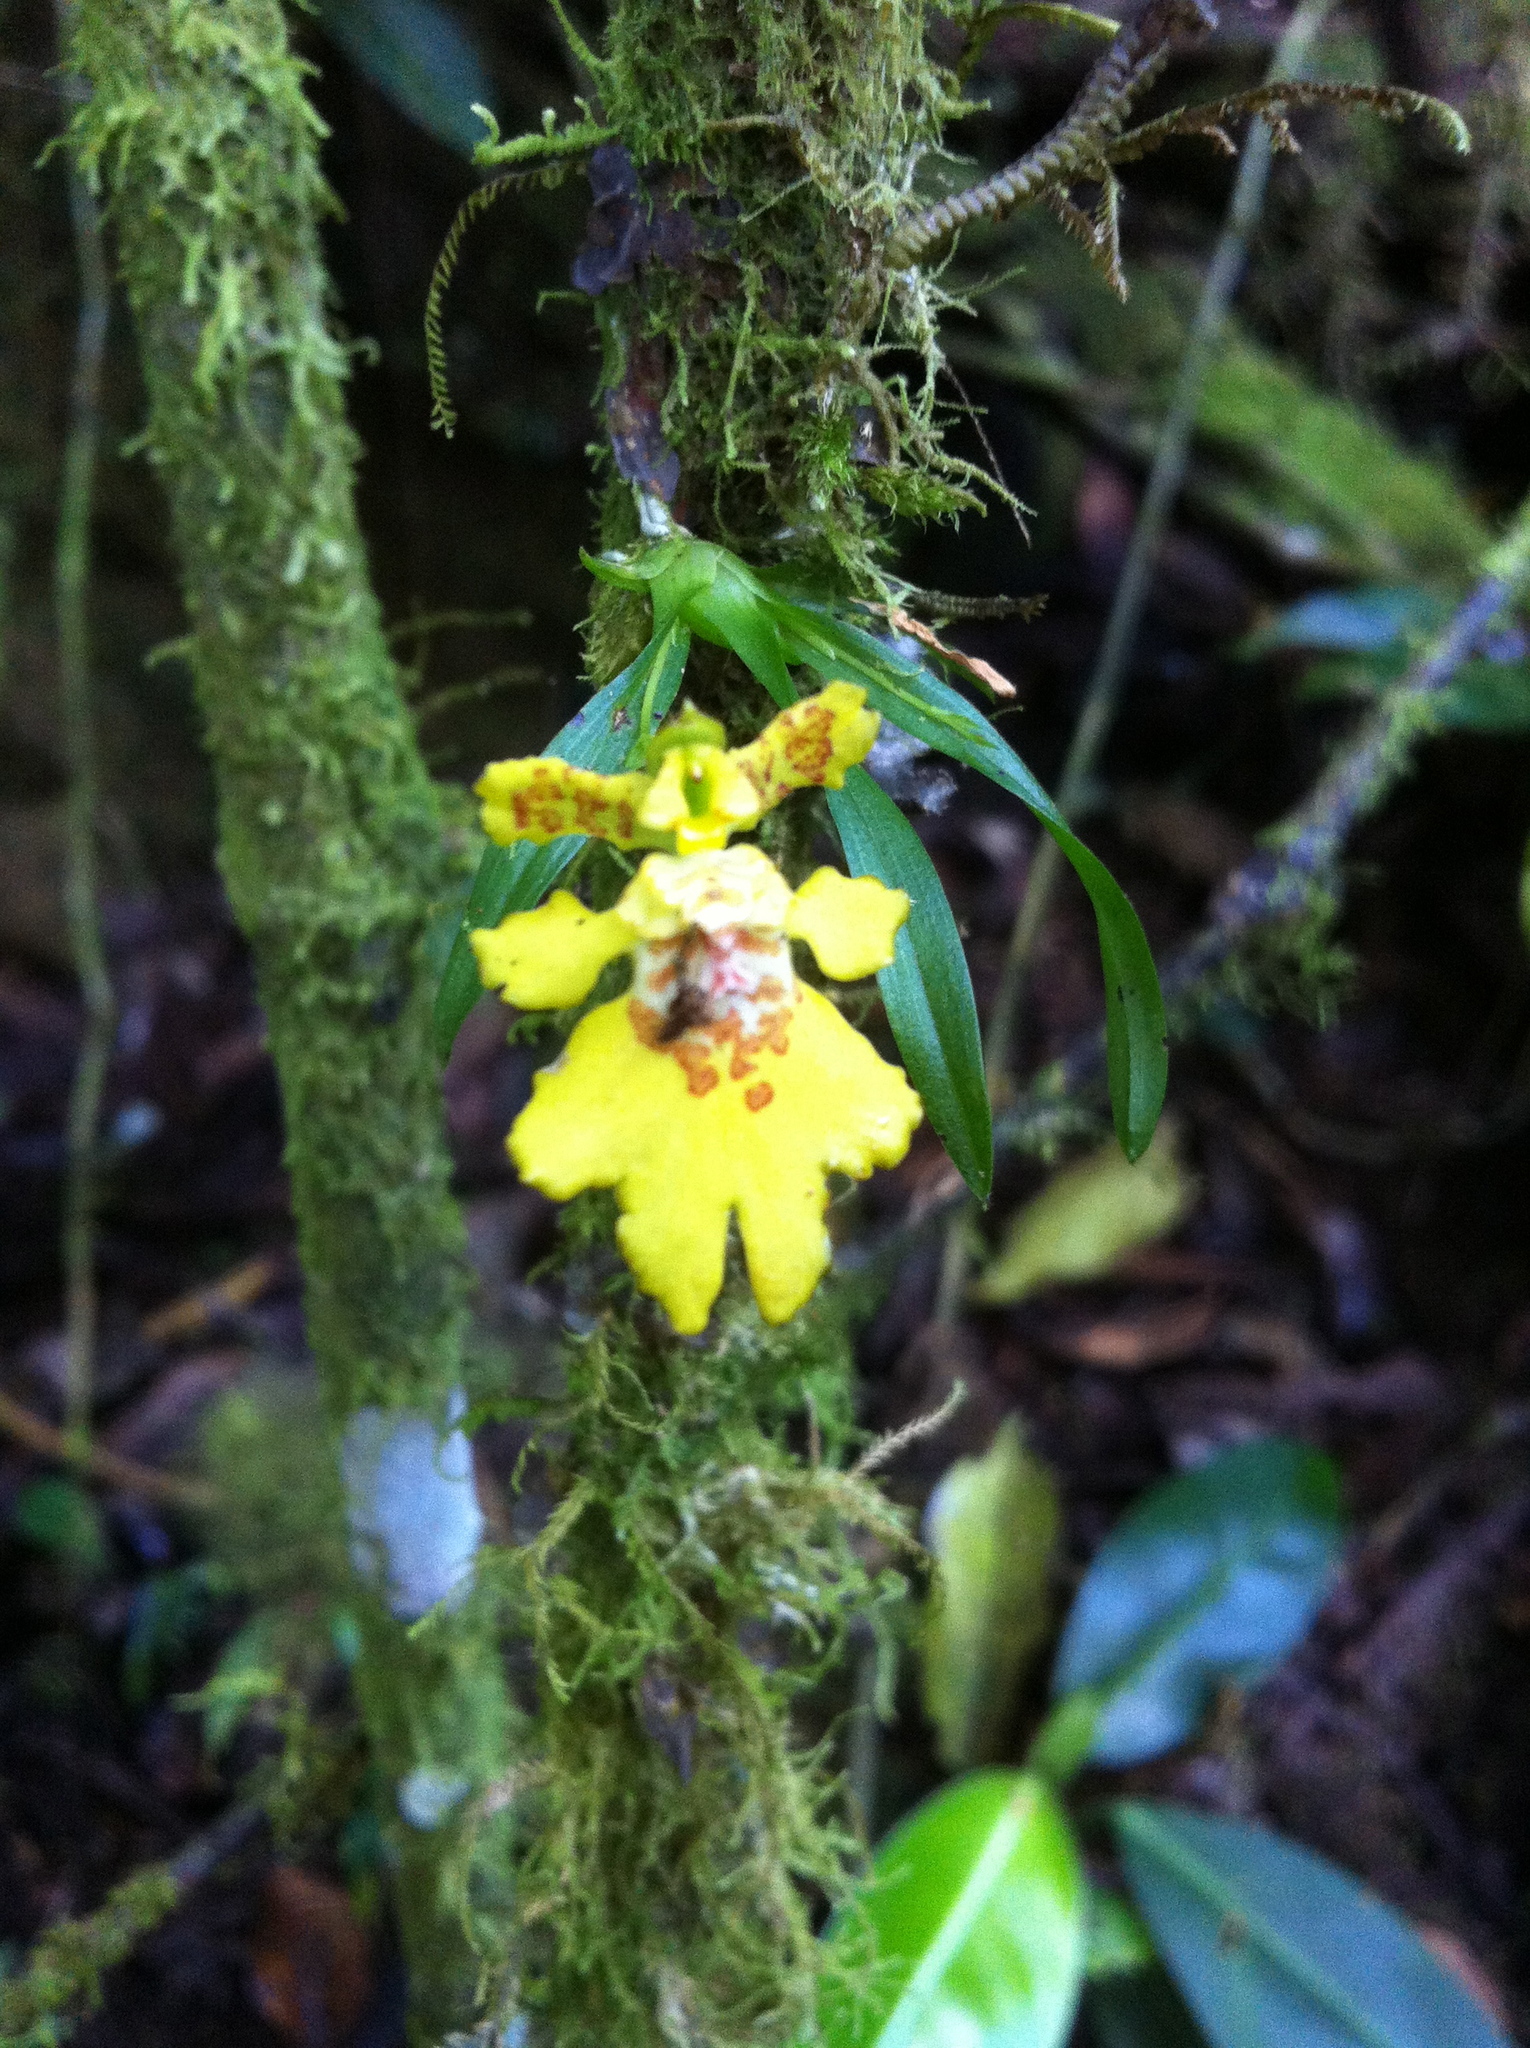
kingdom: Plantae
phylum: Tracheophyta
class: Liliopsida
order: Asparagales
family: Orchidaceae
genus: Erycina
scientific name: Erycina crista-galli
